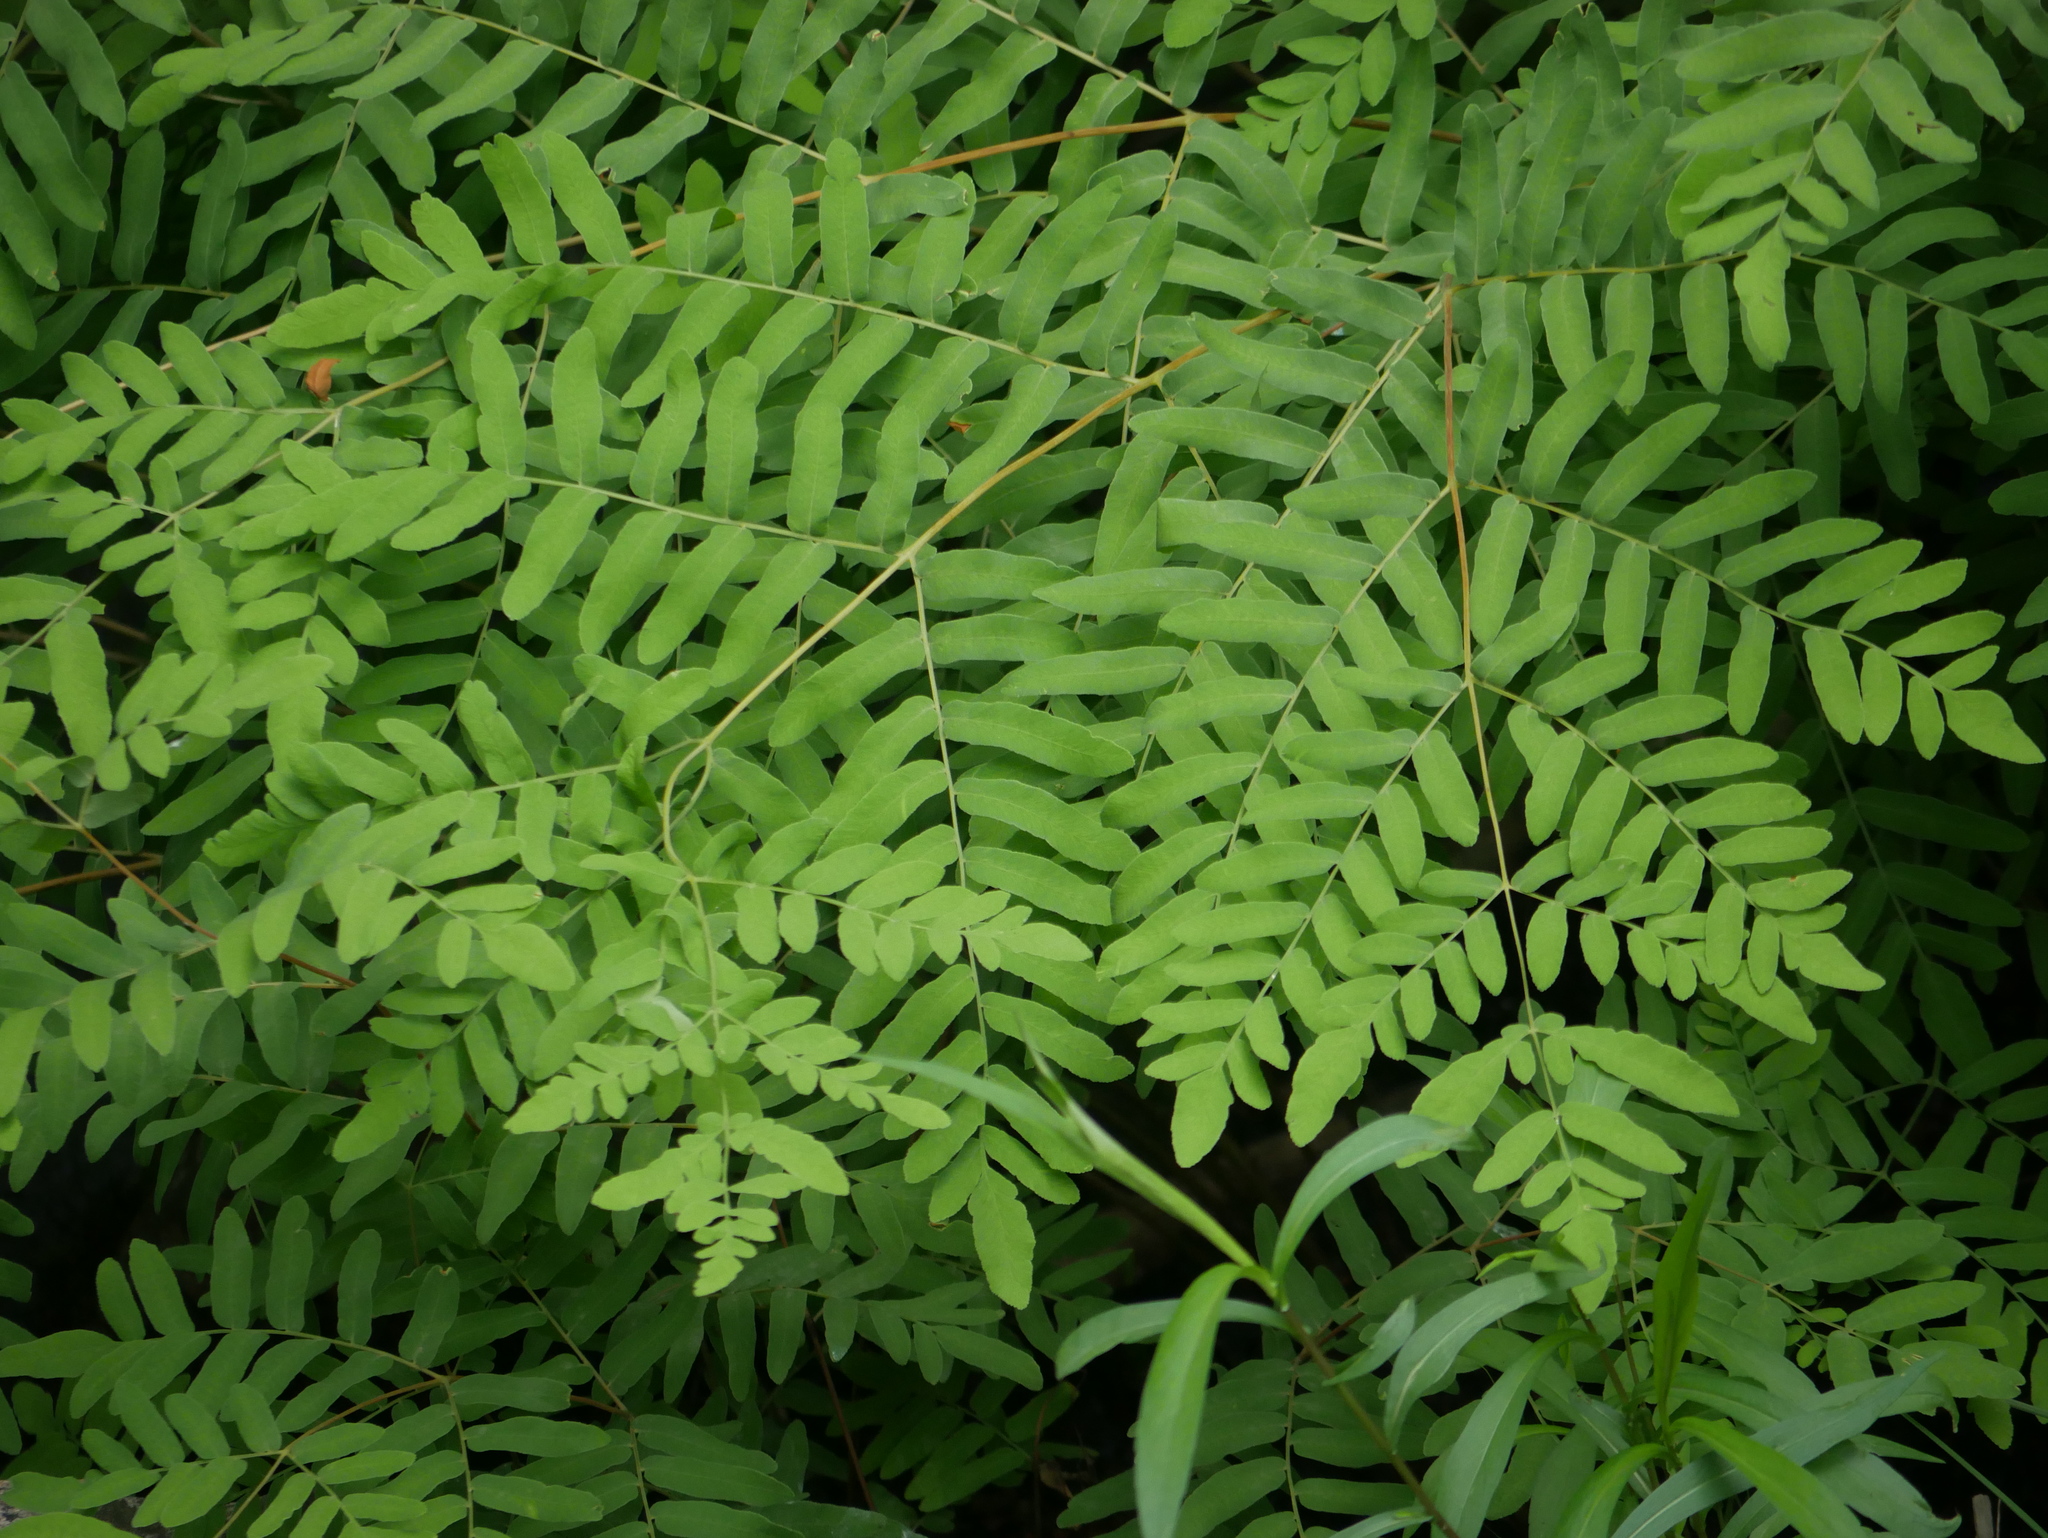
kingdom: Plantae
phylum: Tracheophyta
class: Polypodiopsida
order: Osmundales
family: Osmundaceae
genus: Osmunda
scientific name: Osmunda spectabilis
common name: American royal fern
